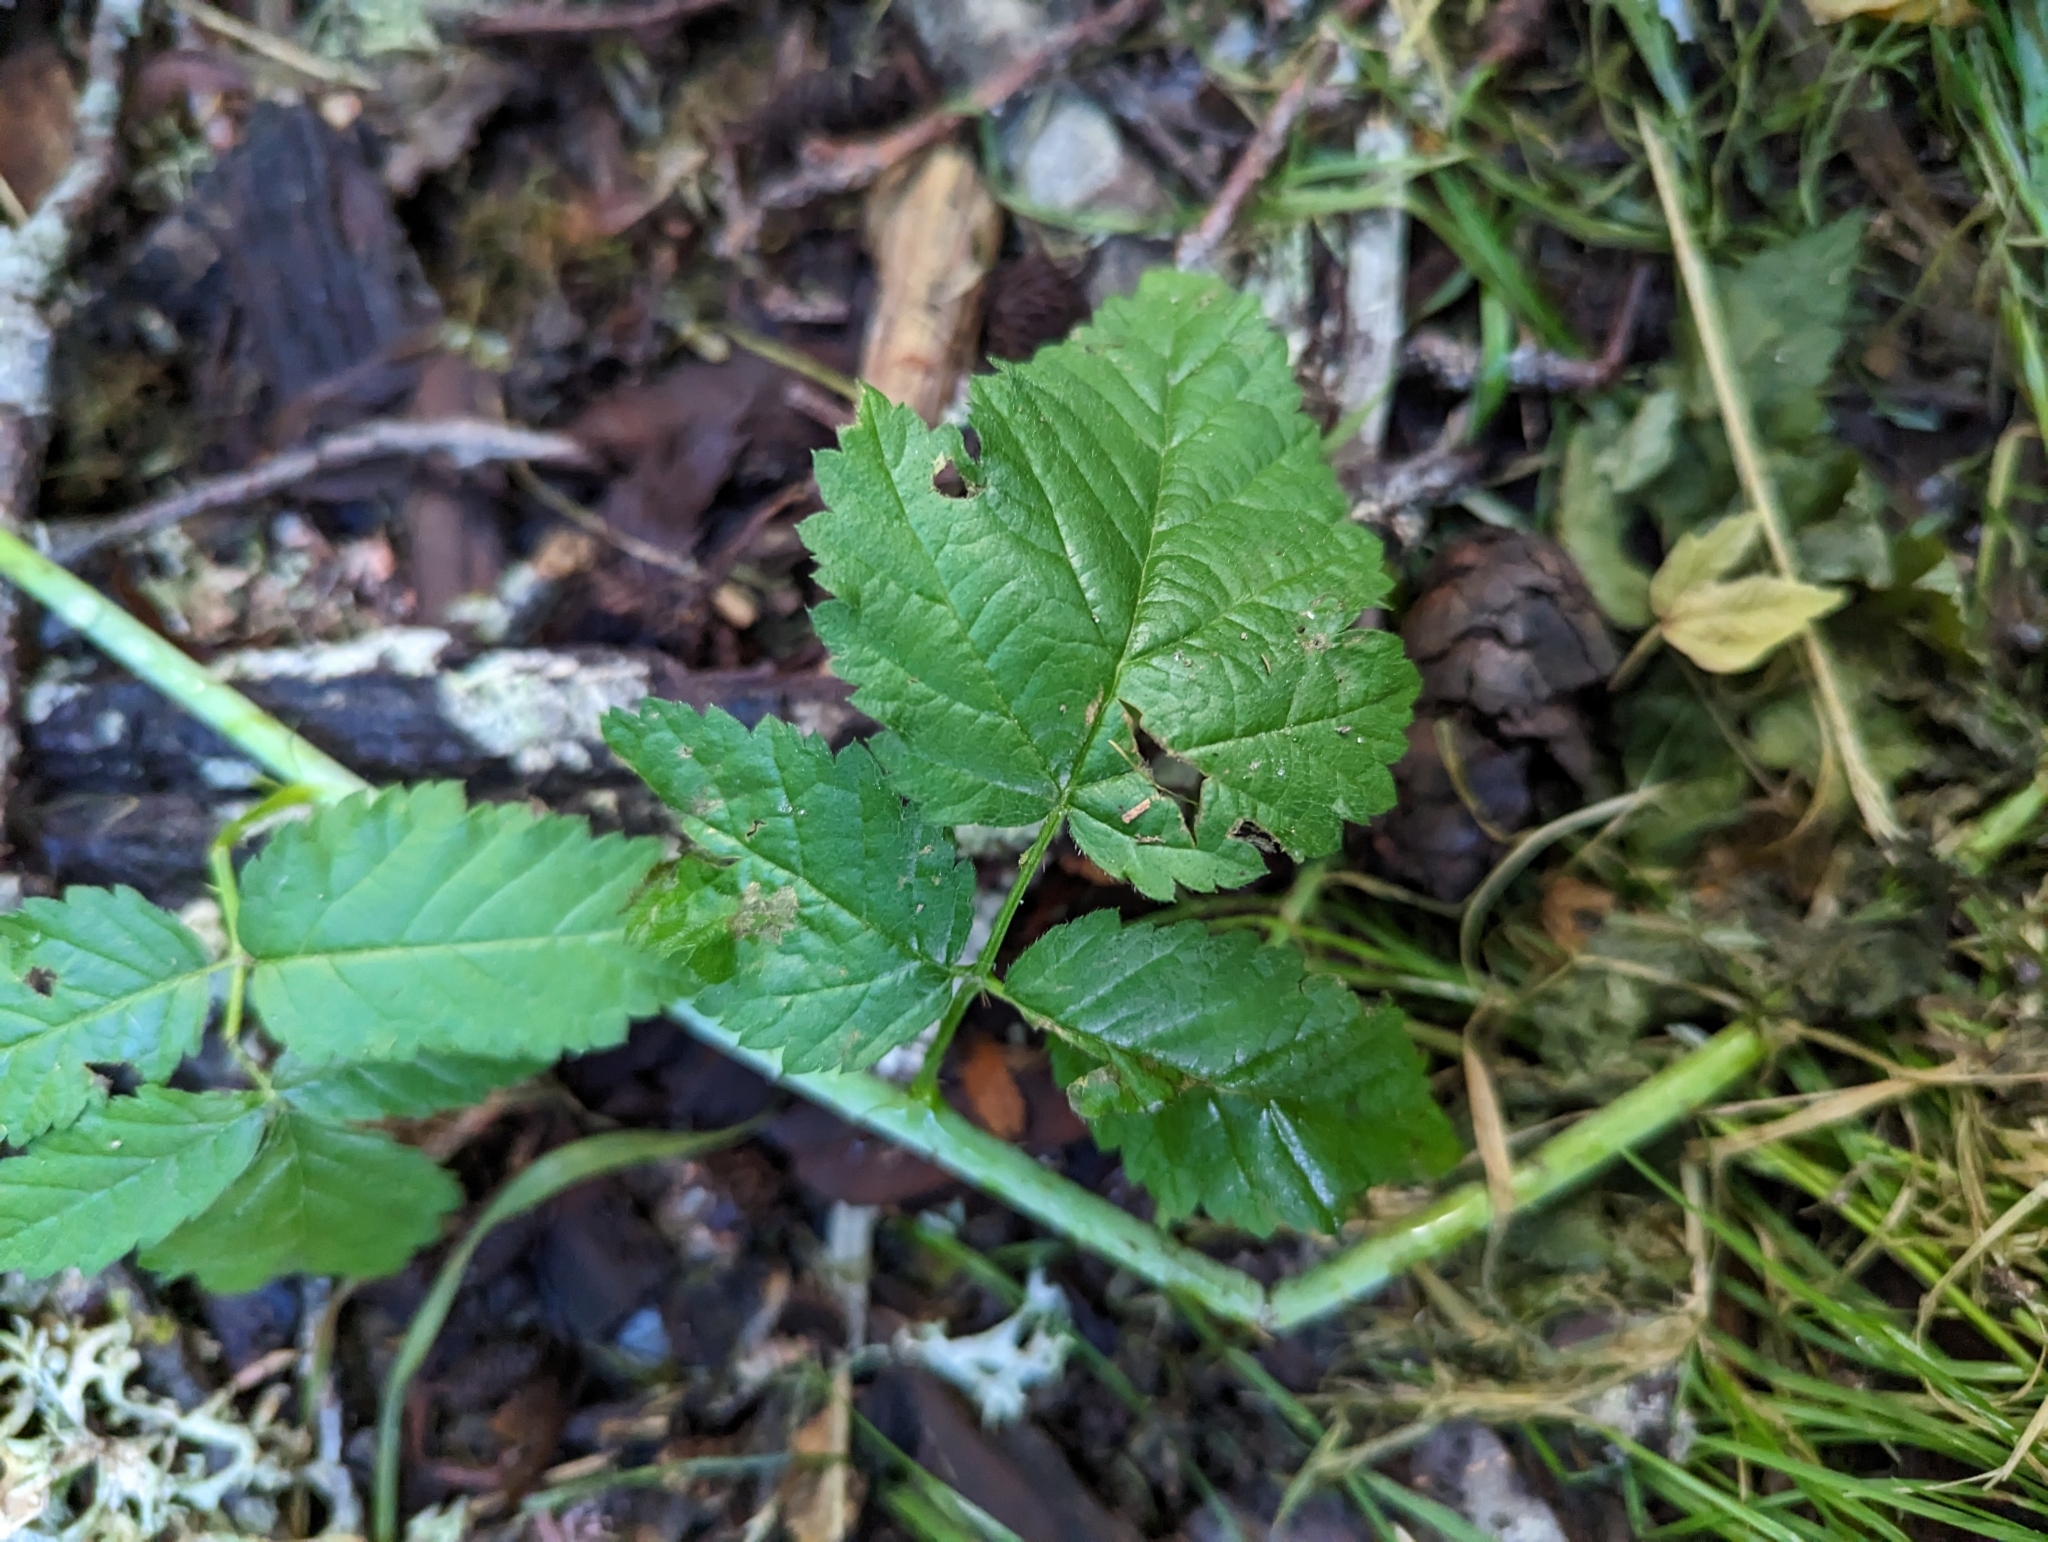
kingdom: Plantae
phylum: Tracheophyta
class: Magnoliopsida
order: Rosales
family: Rosaceae
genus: Rubus
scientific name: Rubus ursinus
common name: Pacific blackberry
